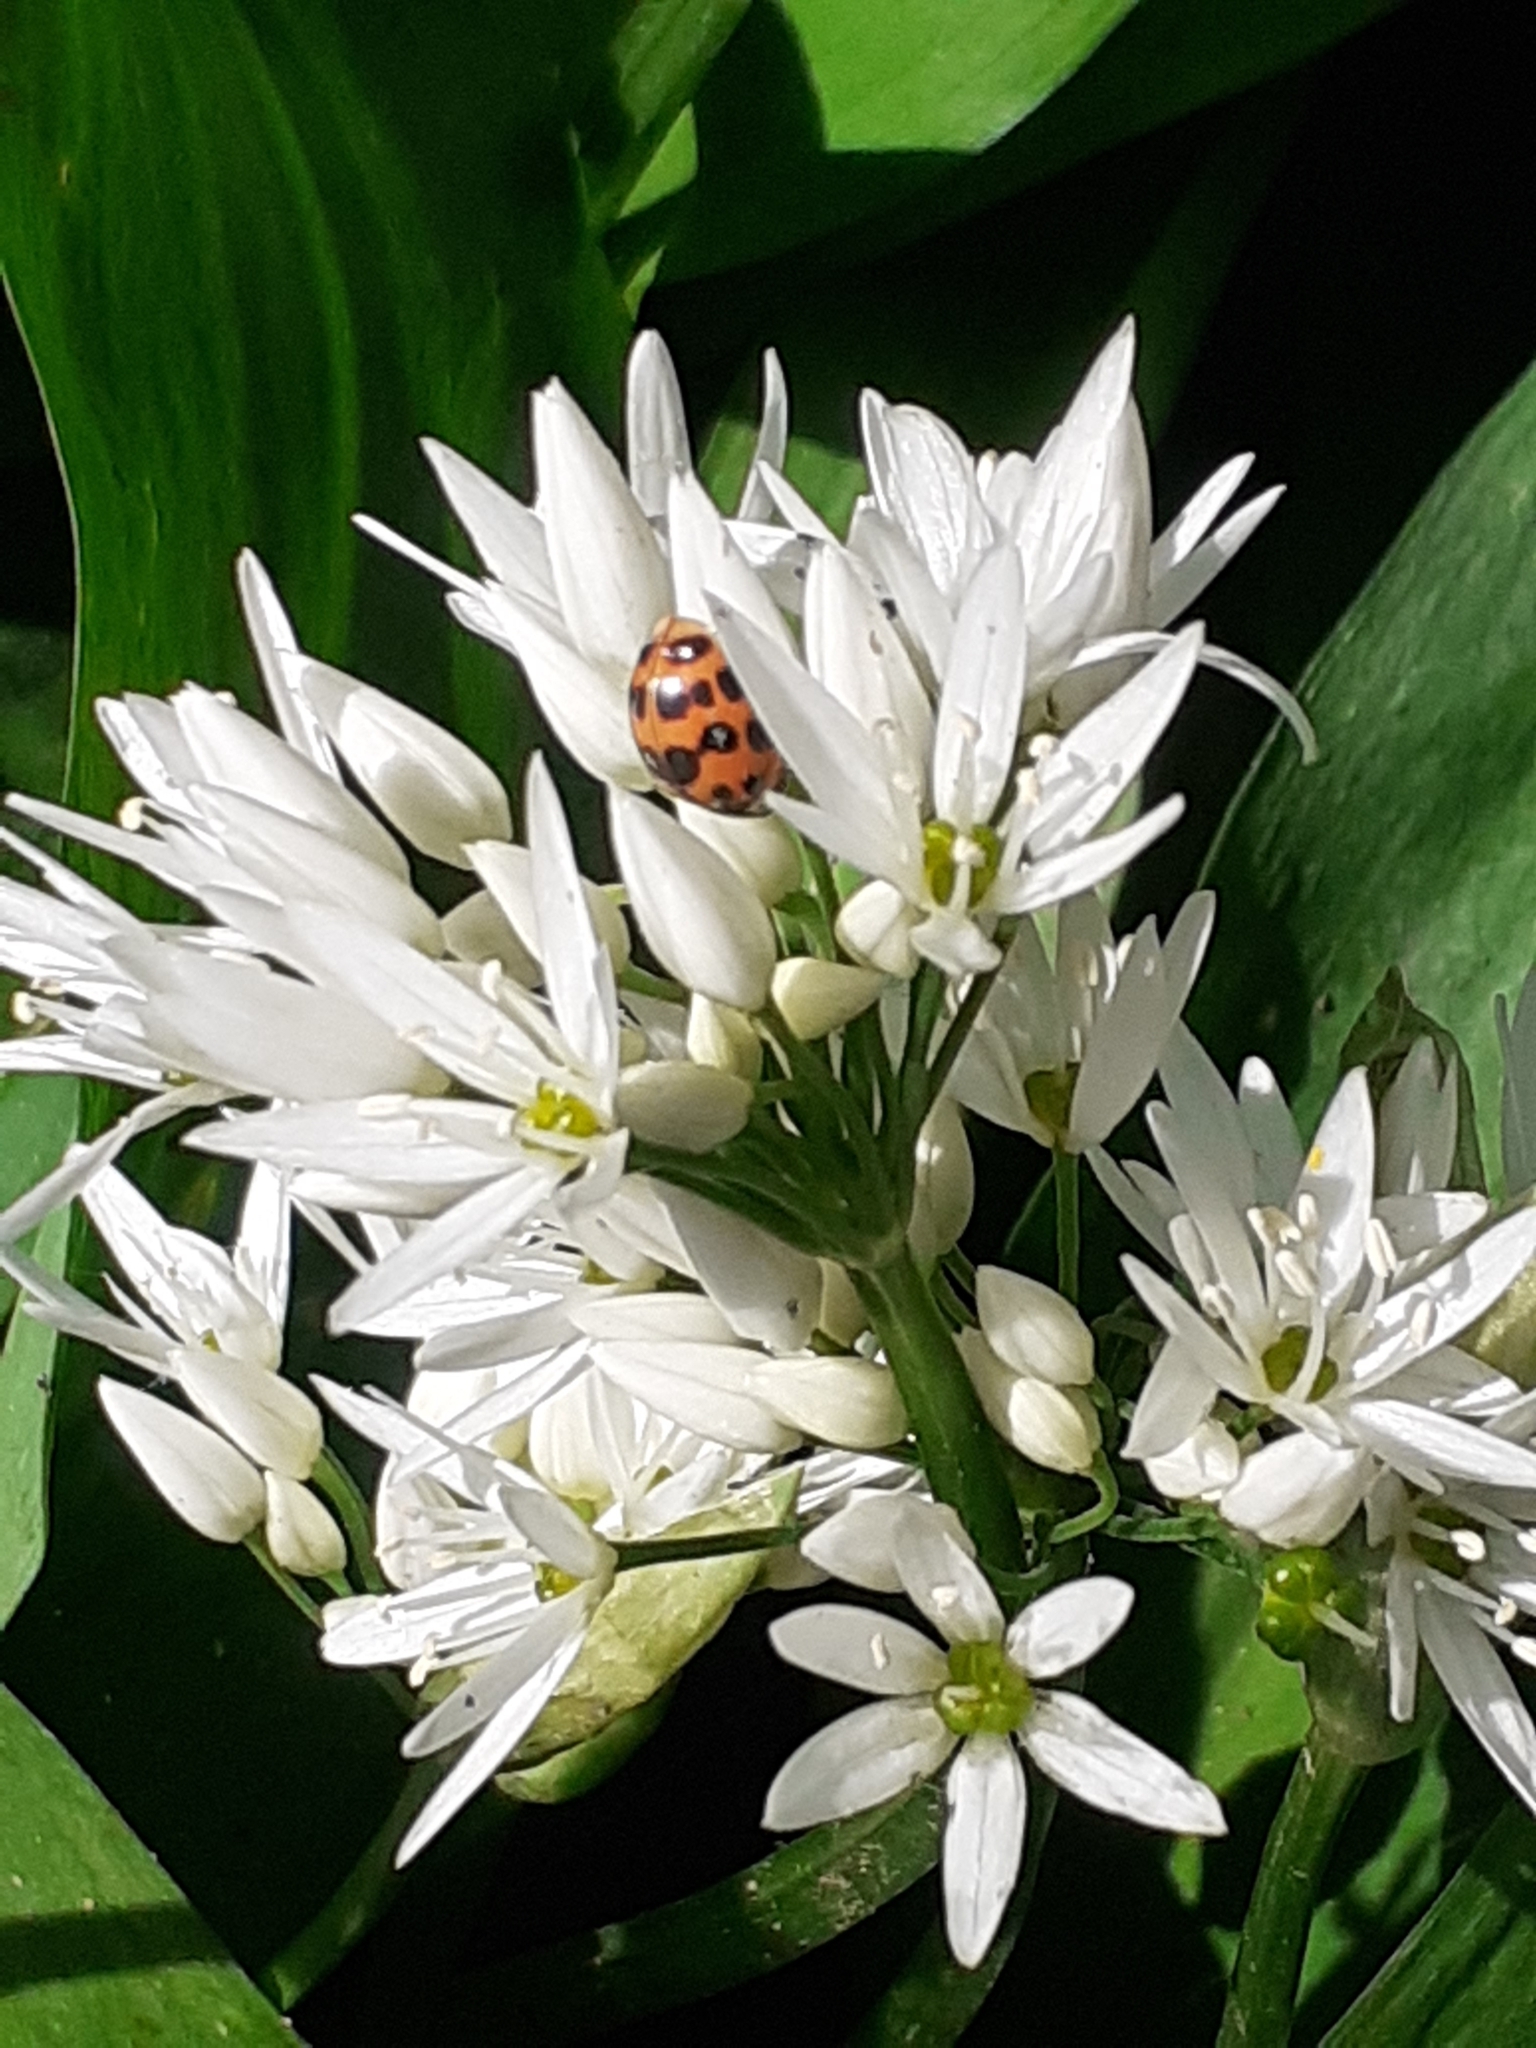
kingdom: Animalia
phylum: Arthropoda
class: Insecta
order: Coleoptera
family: Coccinellidae
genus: Harmonia
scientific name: Harmonia axyridis
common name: Harlequin ladybird
